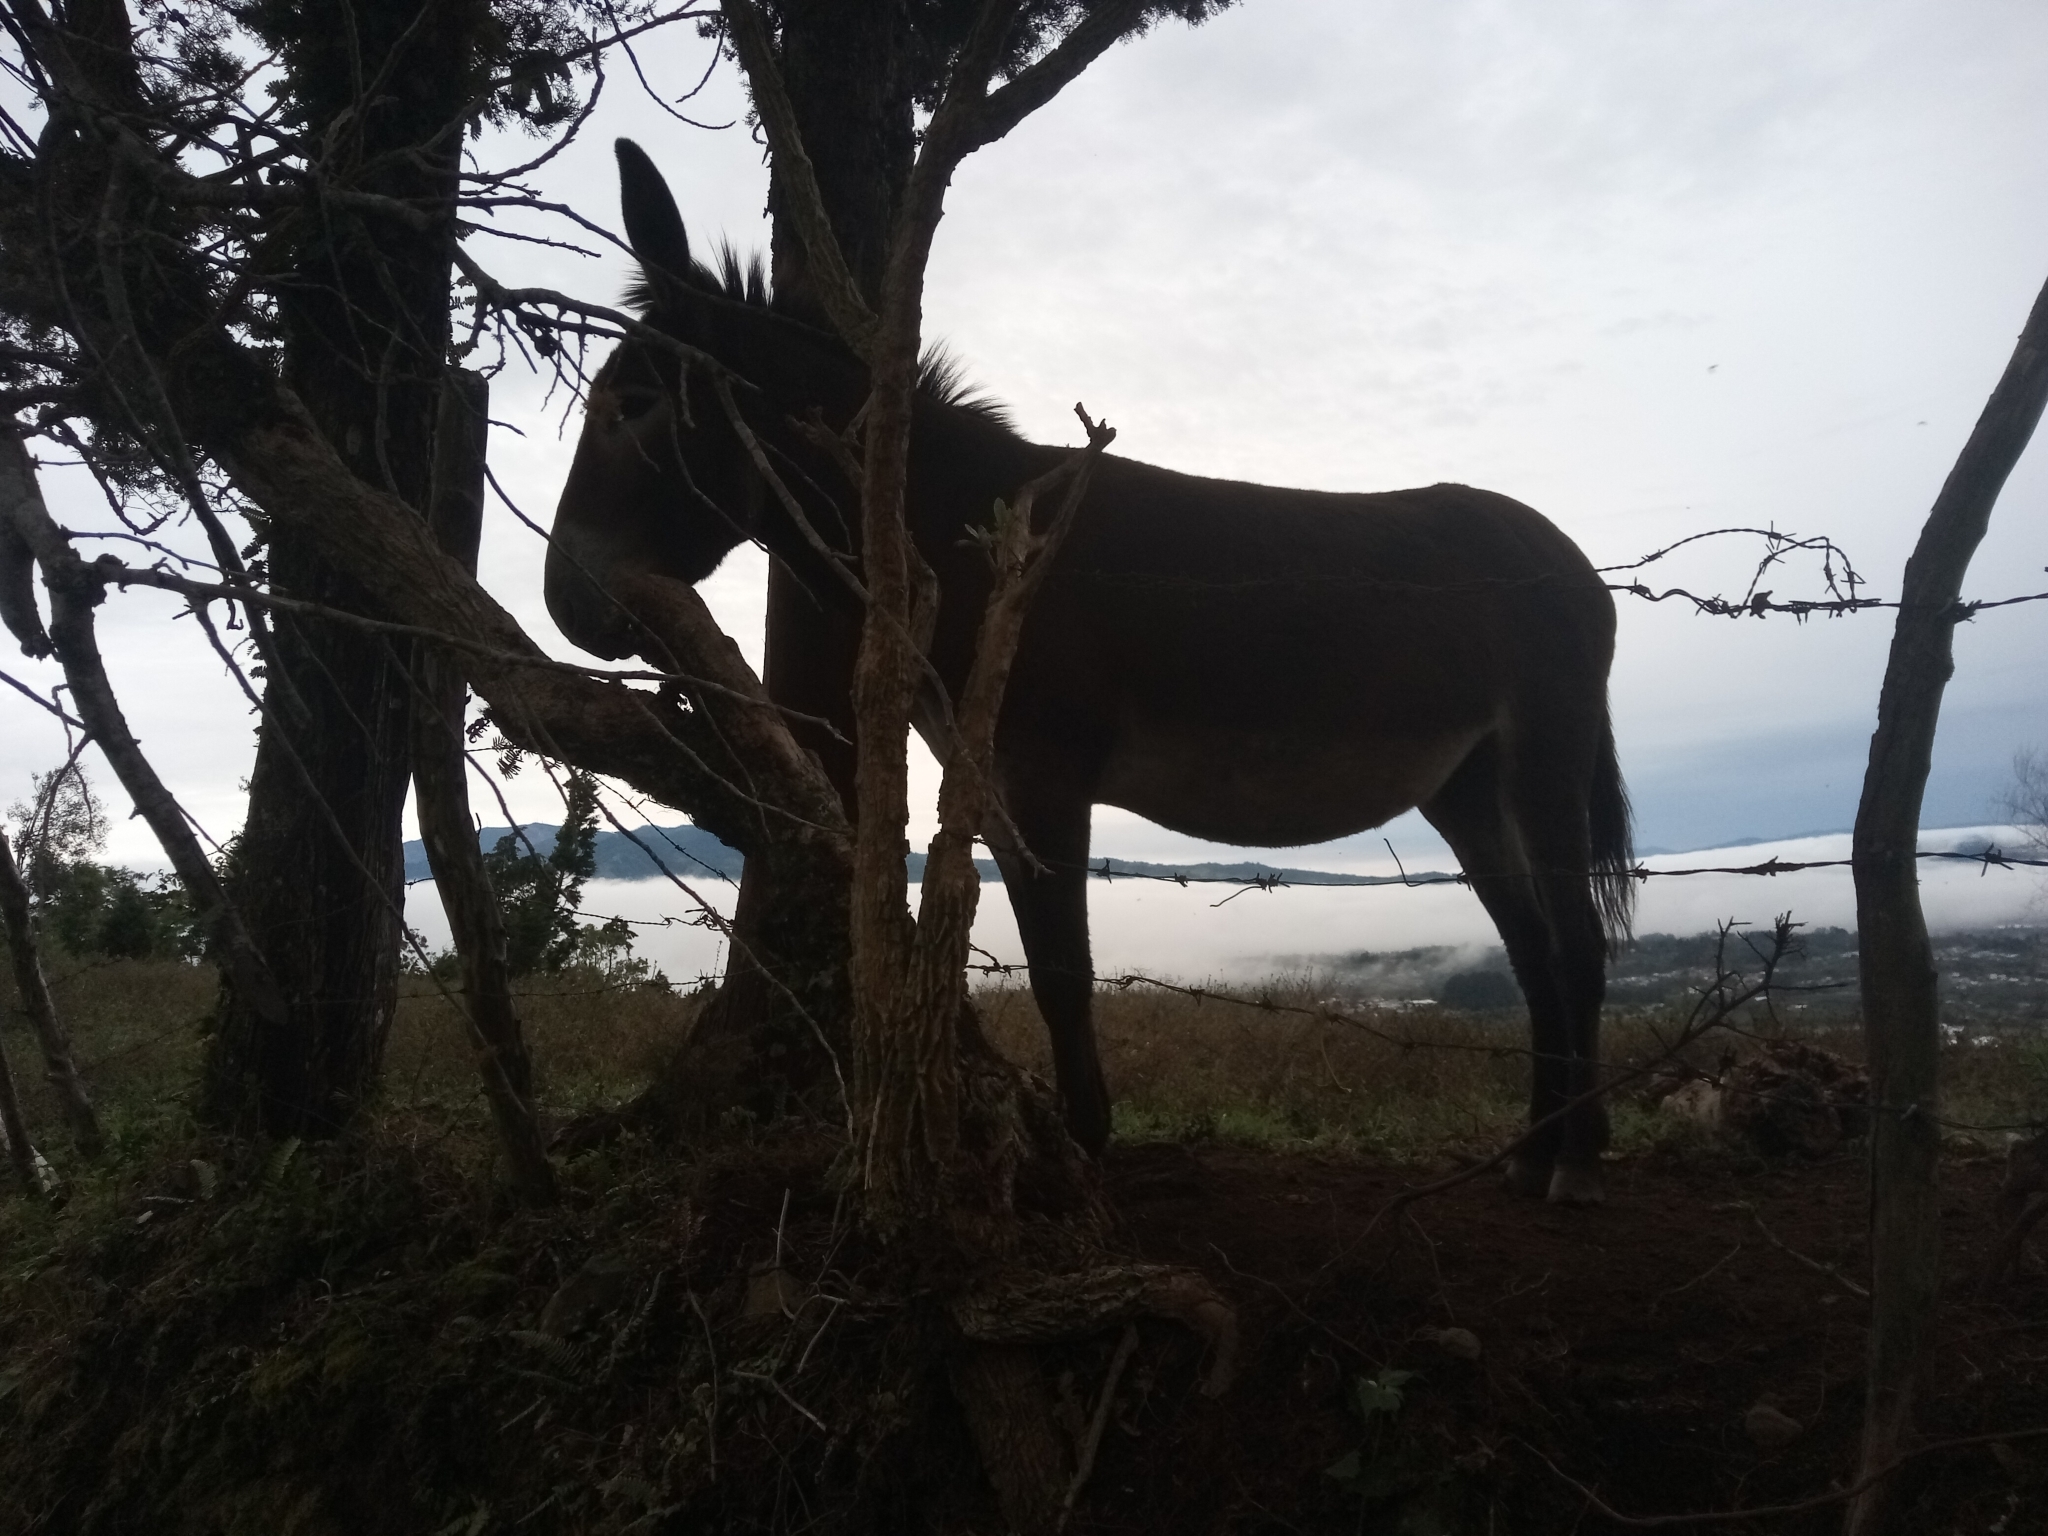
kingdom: Animalia
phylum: Chordata
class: Mammalia
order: Perissodactyla
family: Equidae
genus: Equus
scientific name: Equus asinus
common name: Ass
